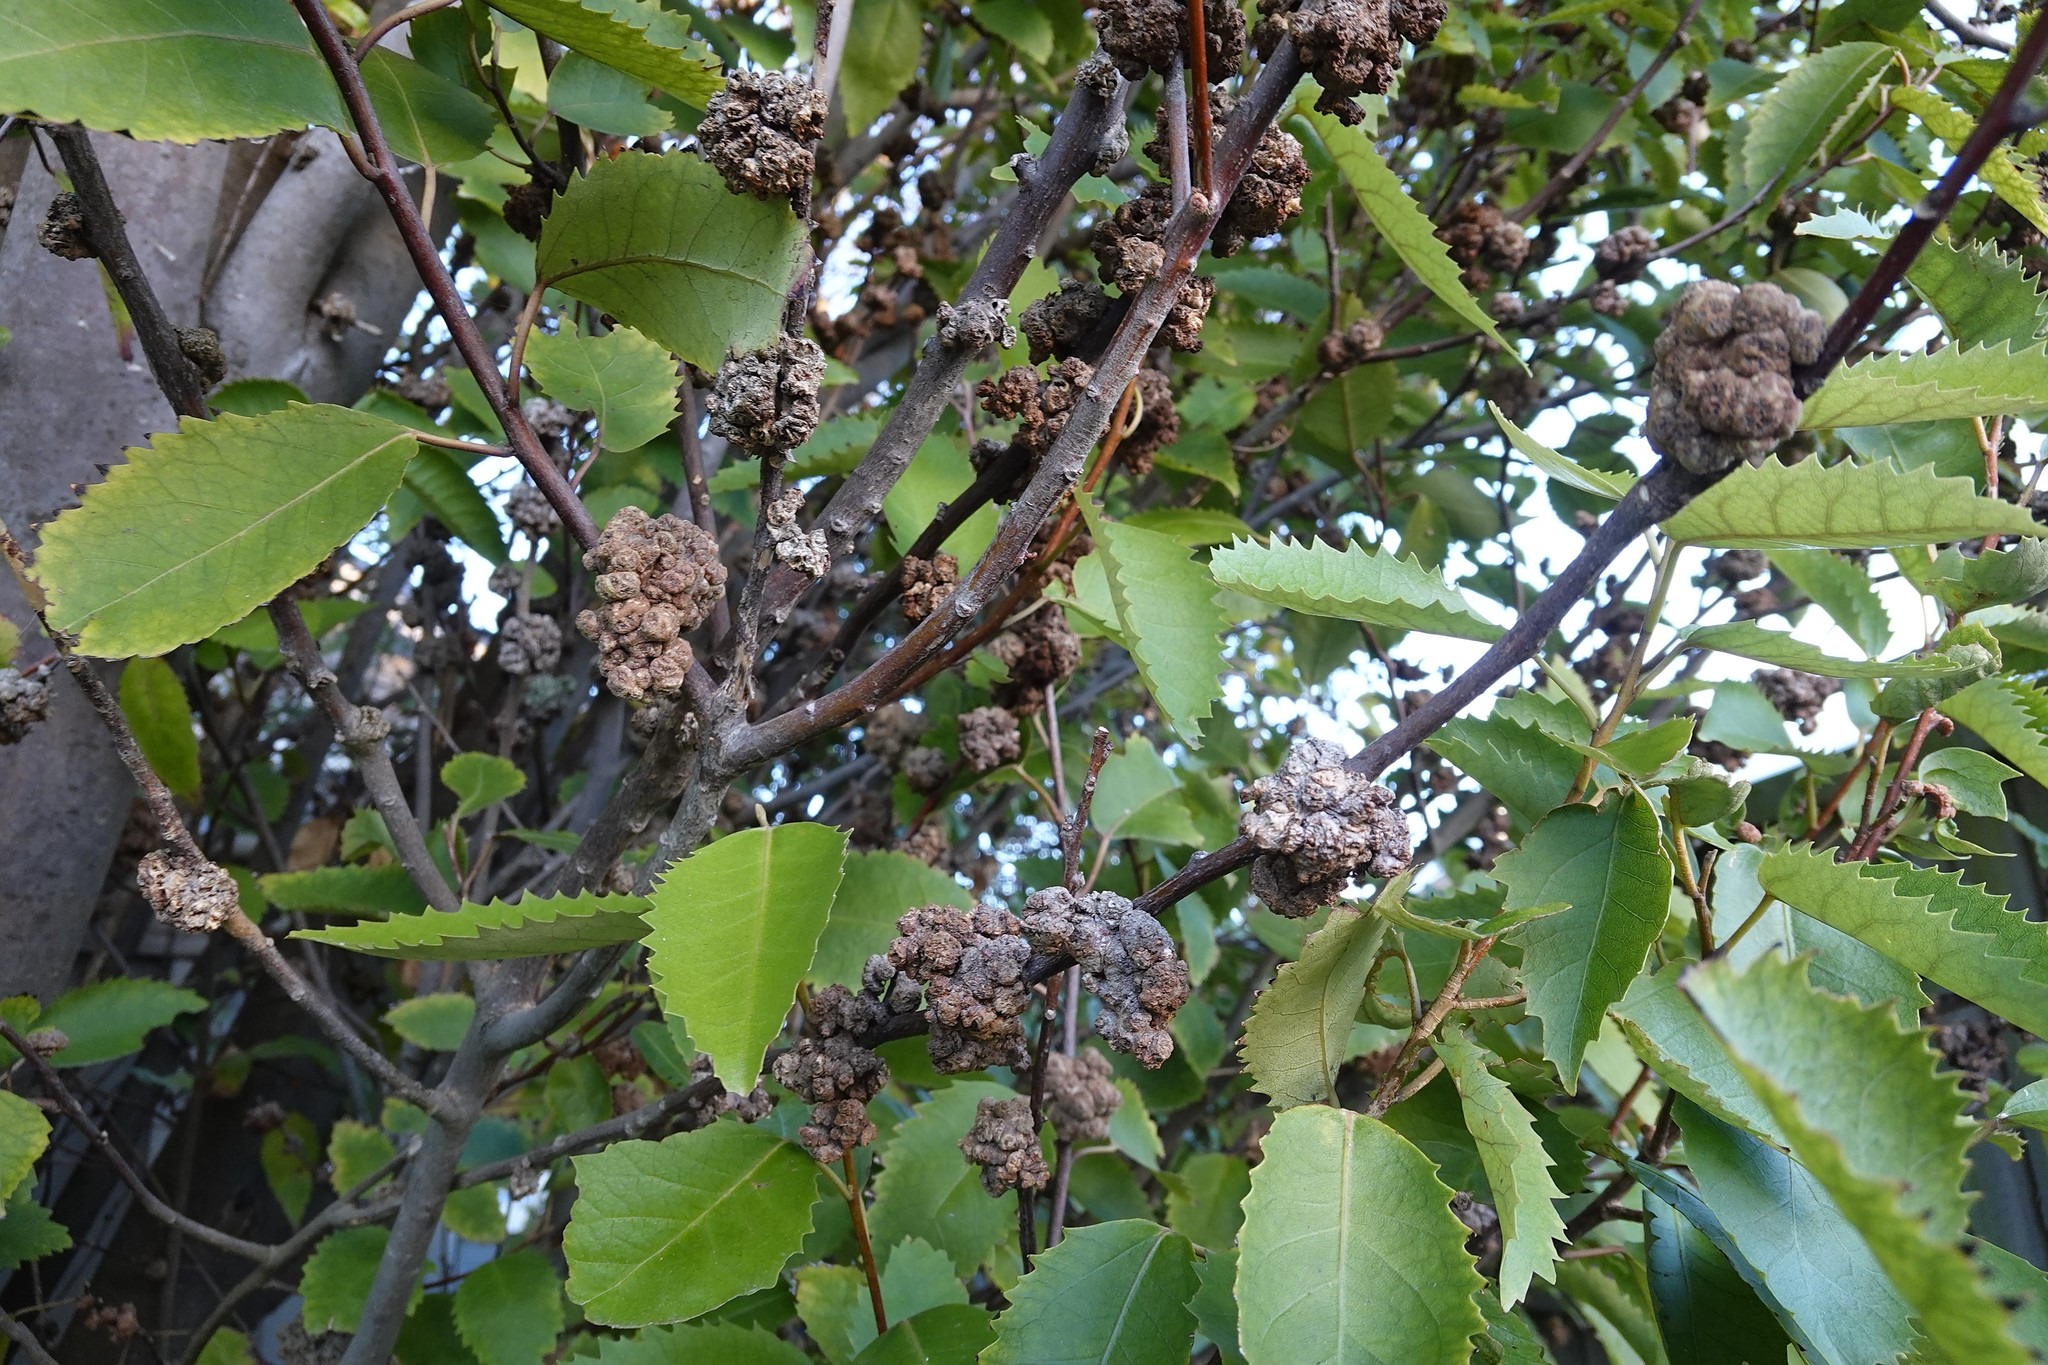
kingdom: Animalia
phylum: Arthropoda
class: Arachnida
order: Trombidiformes
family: Eriophyidae
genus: Eriophyes
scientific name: Eriophyes hoheriae
